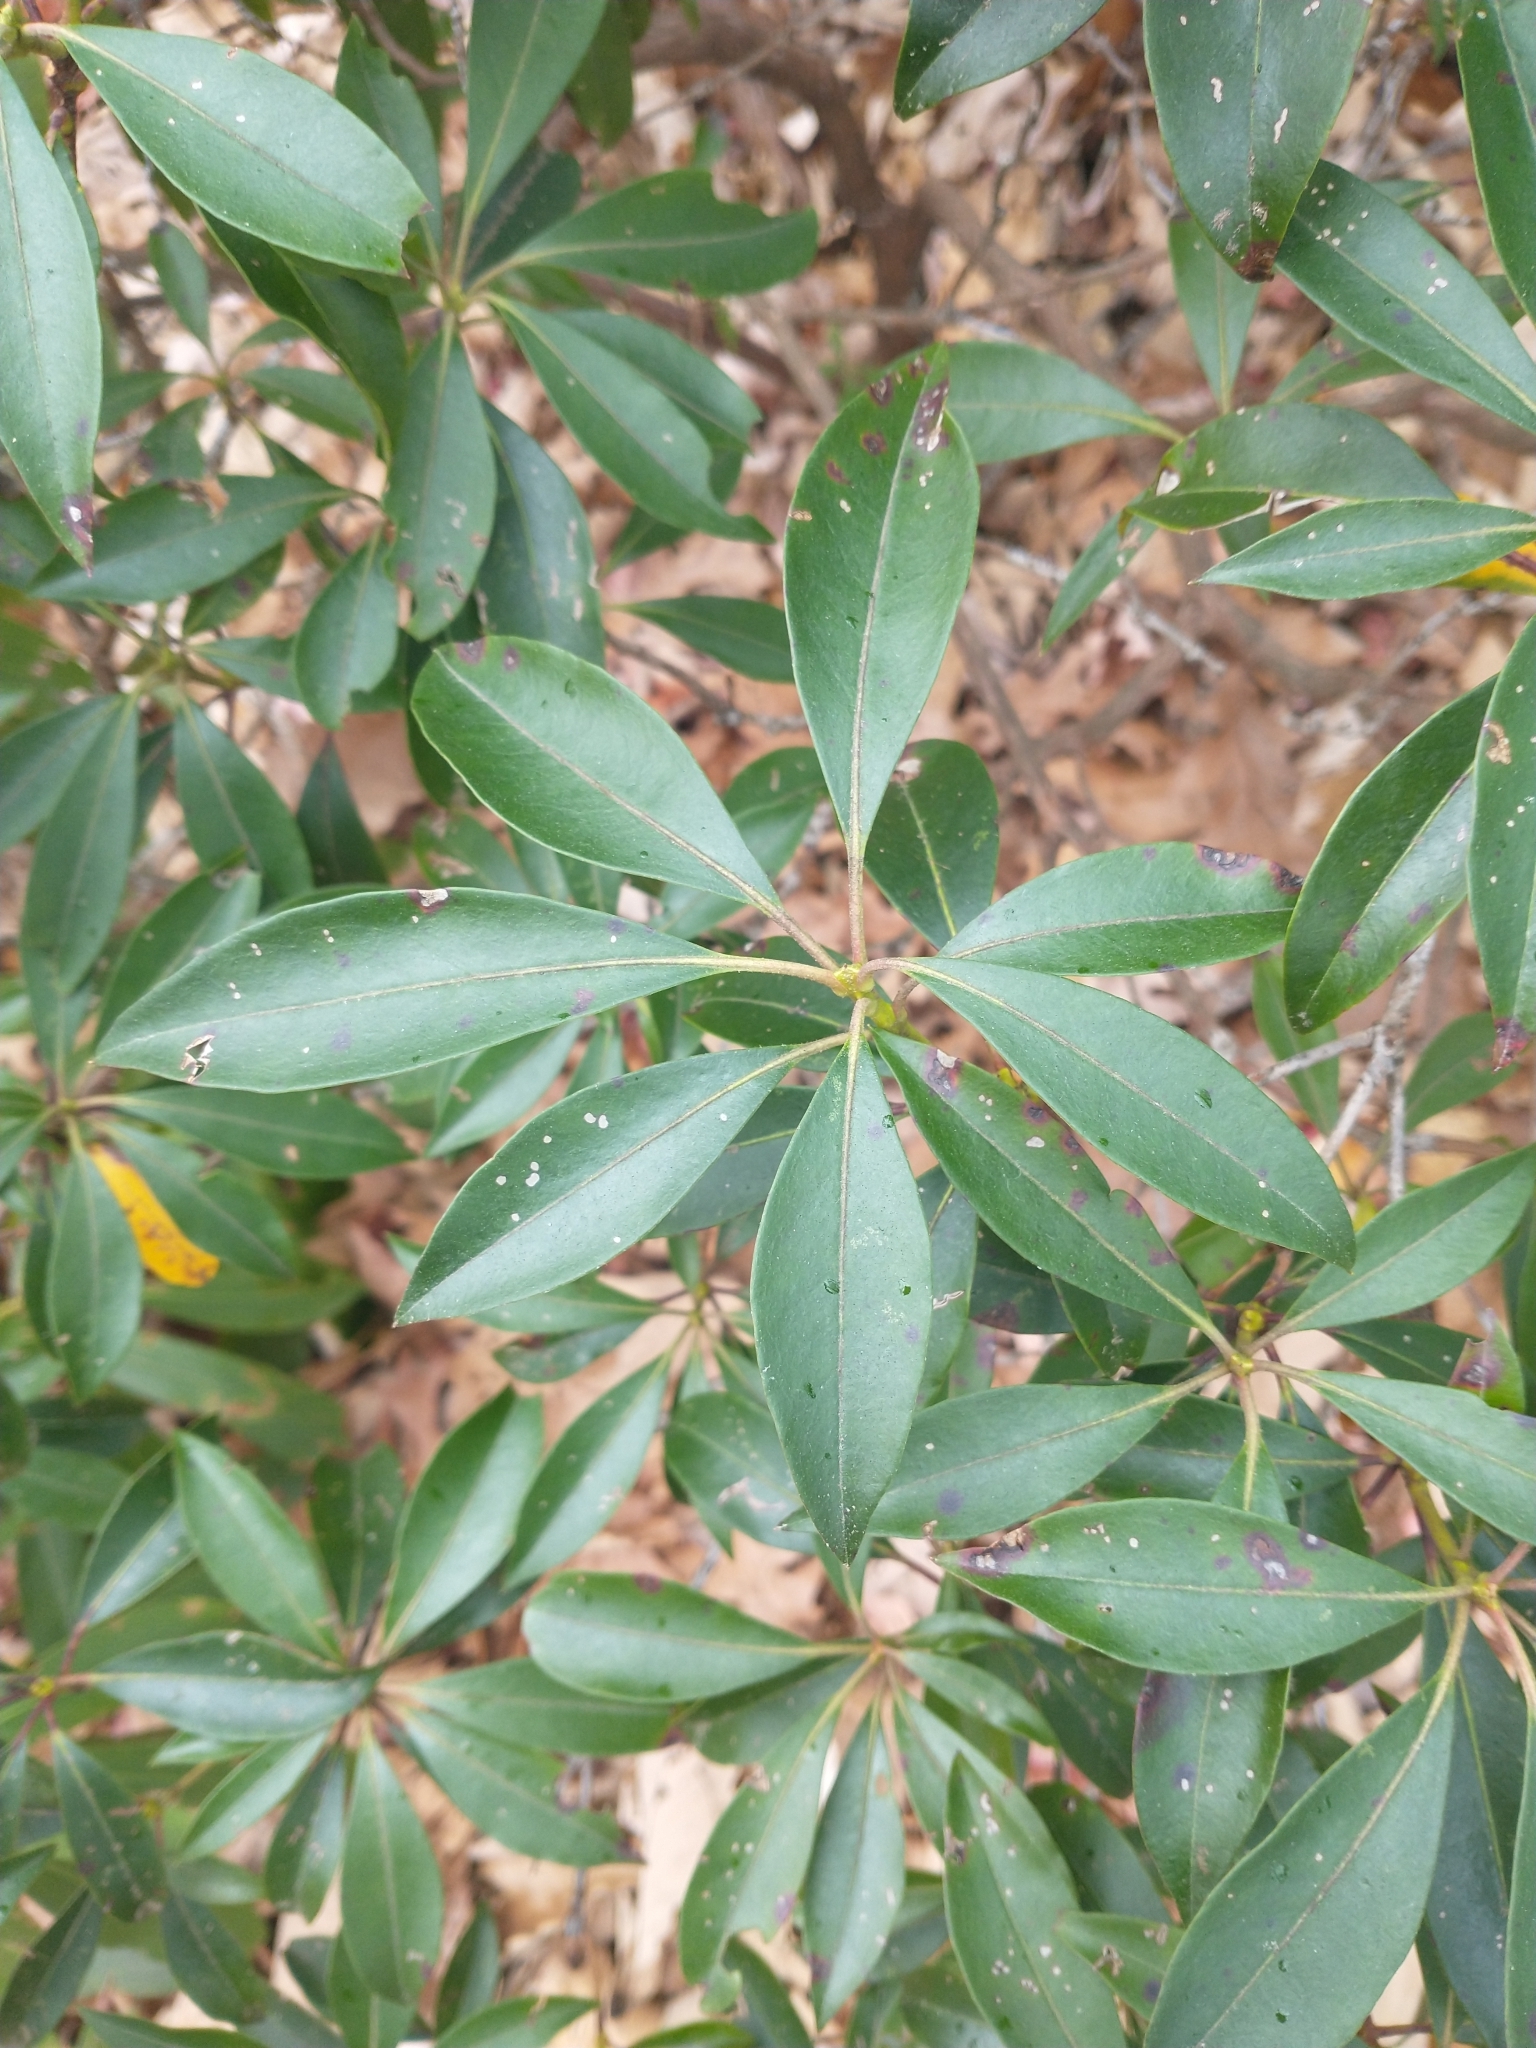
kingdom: Plantae
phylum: Tracheophyta
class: Magnoliopsida
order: Ericales
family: Ericaceae
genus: Kalmia
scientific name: Kalmia latifolia
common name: Mountain-laurel
